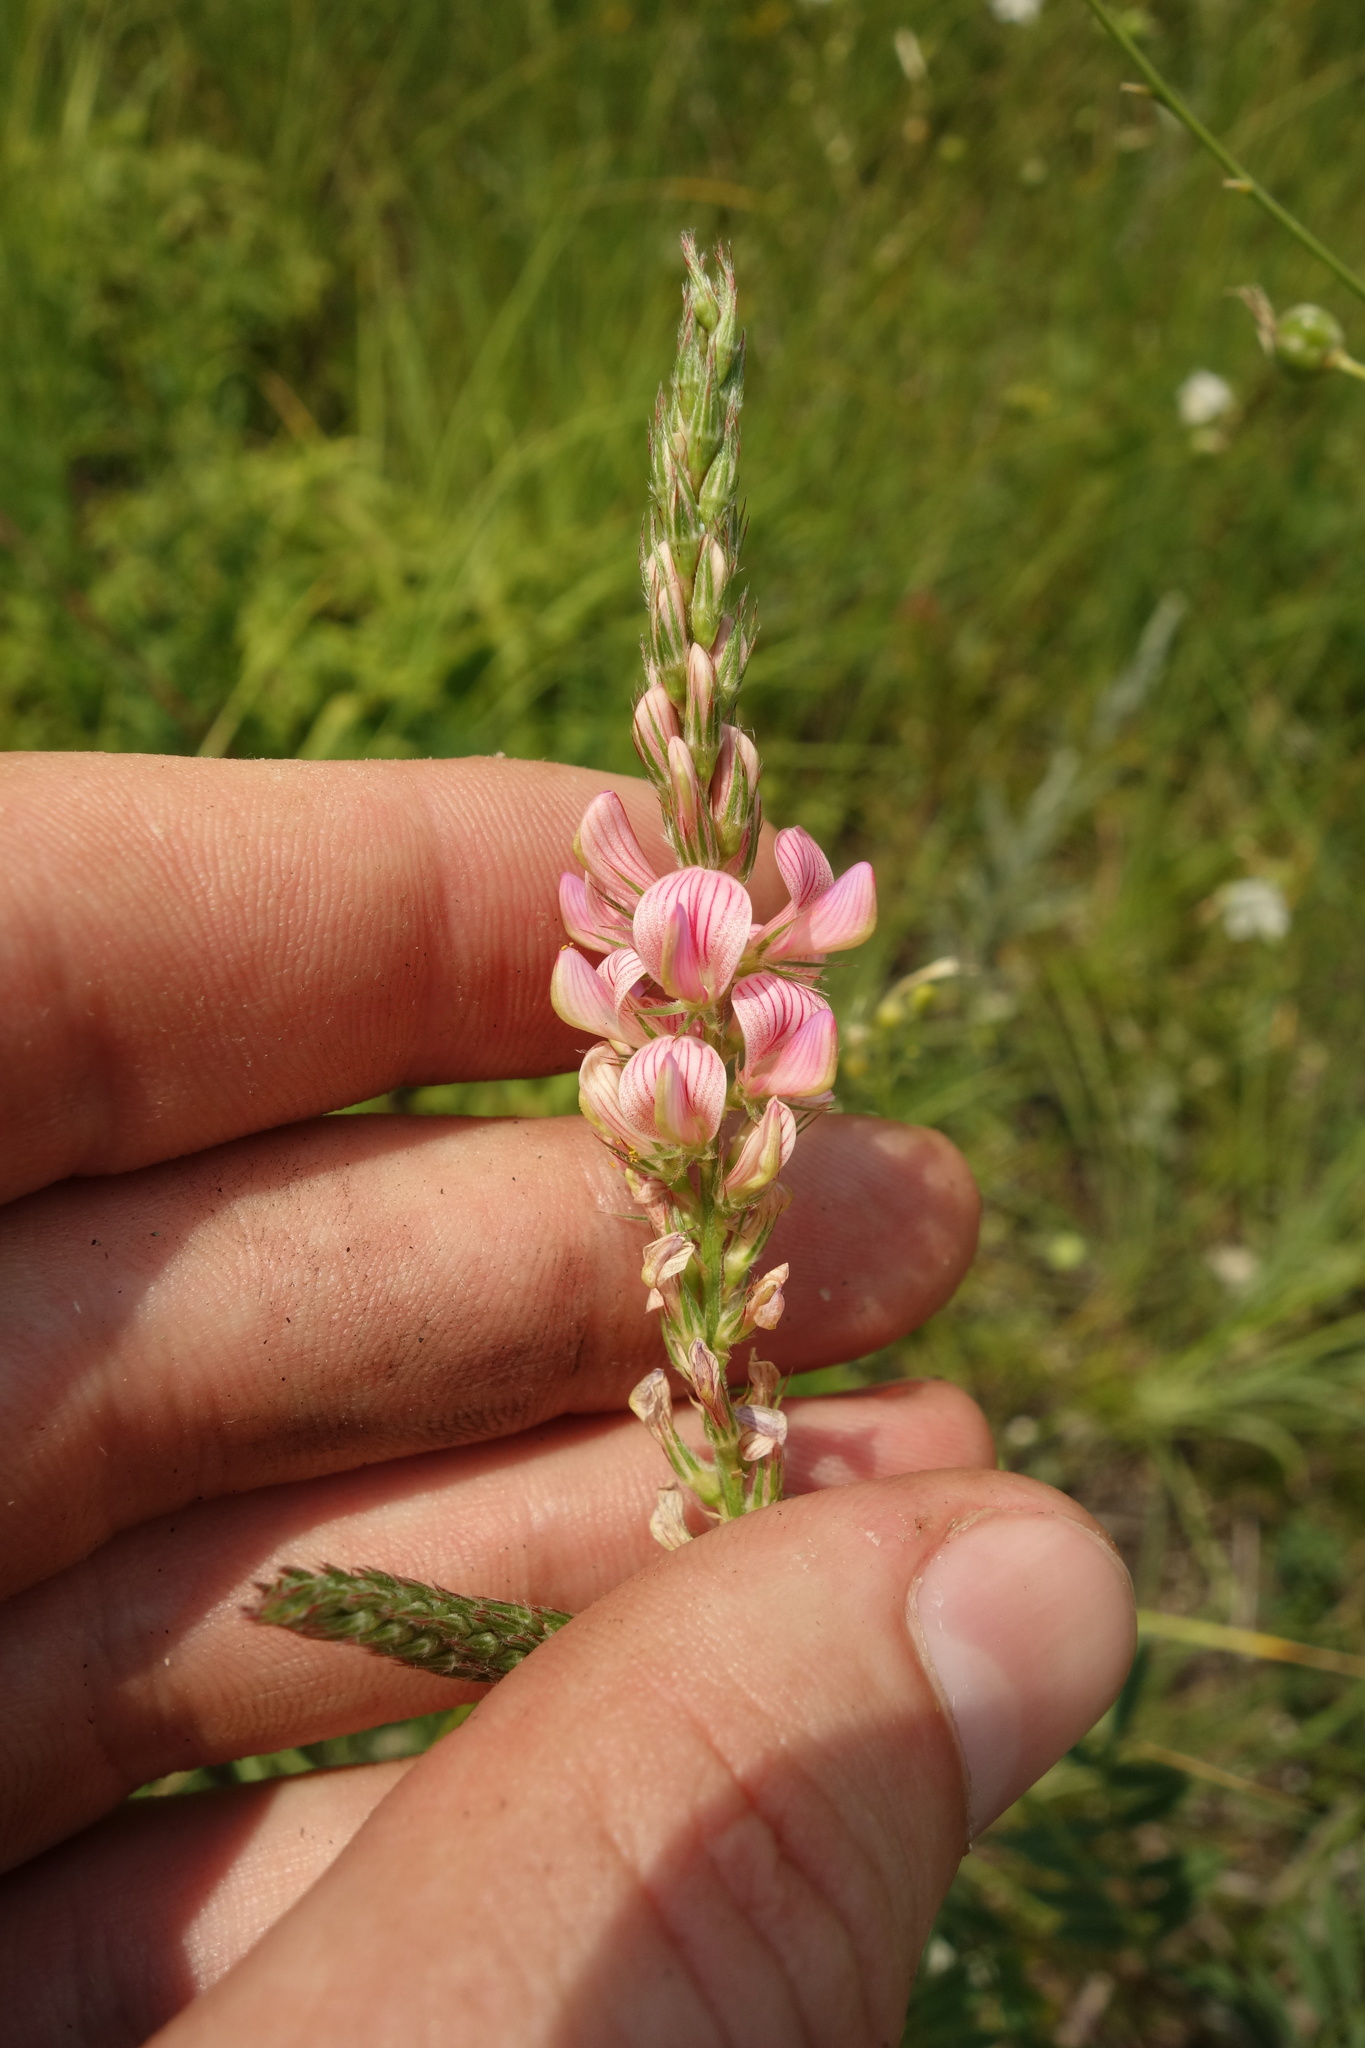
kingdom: Plantae
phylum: Tracheophyta
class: Magnoliopsida
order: Fabales
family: Fabaceae
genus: Onobrychis
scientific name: Onobrychis viciifolia
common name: Sainfoin
